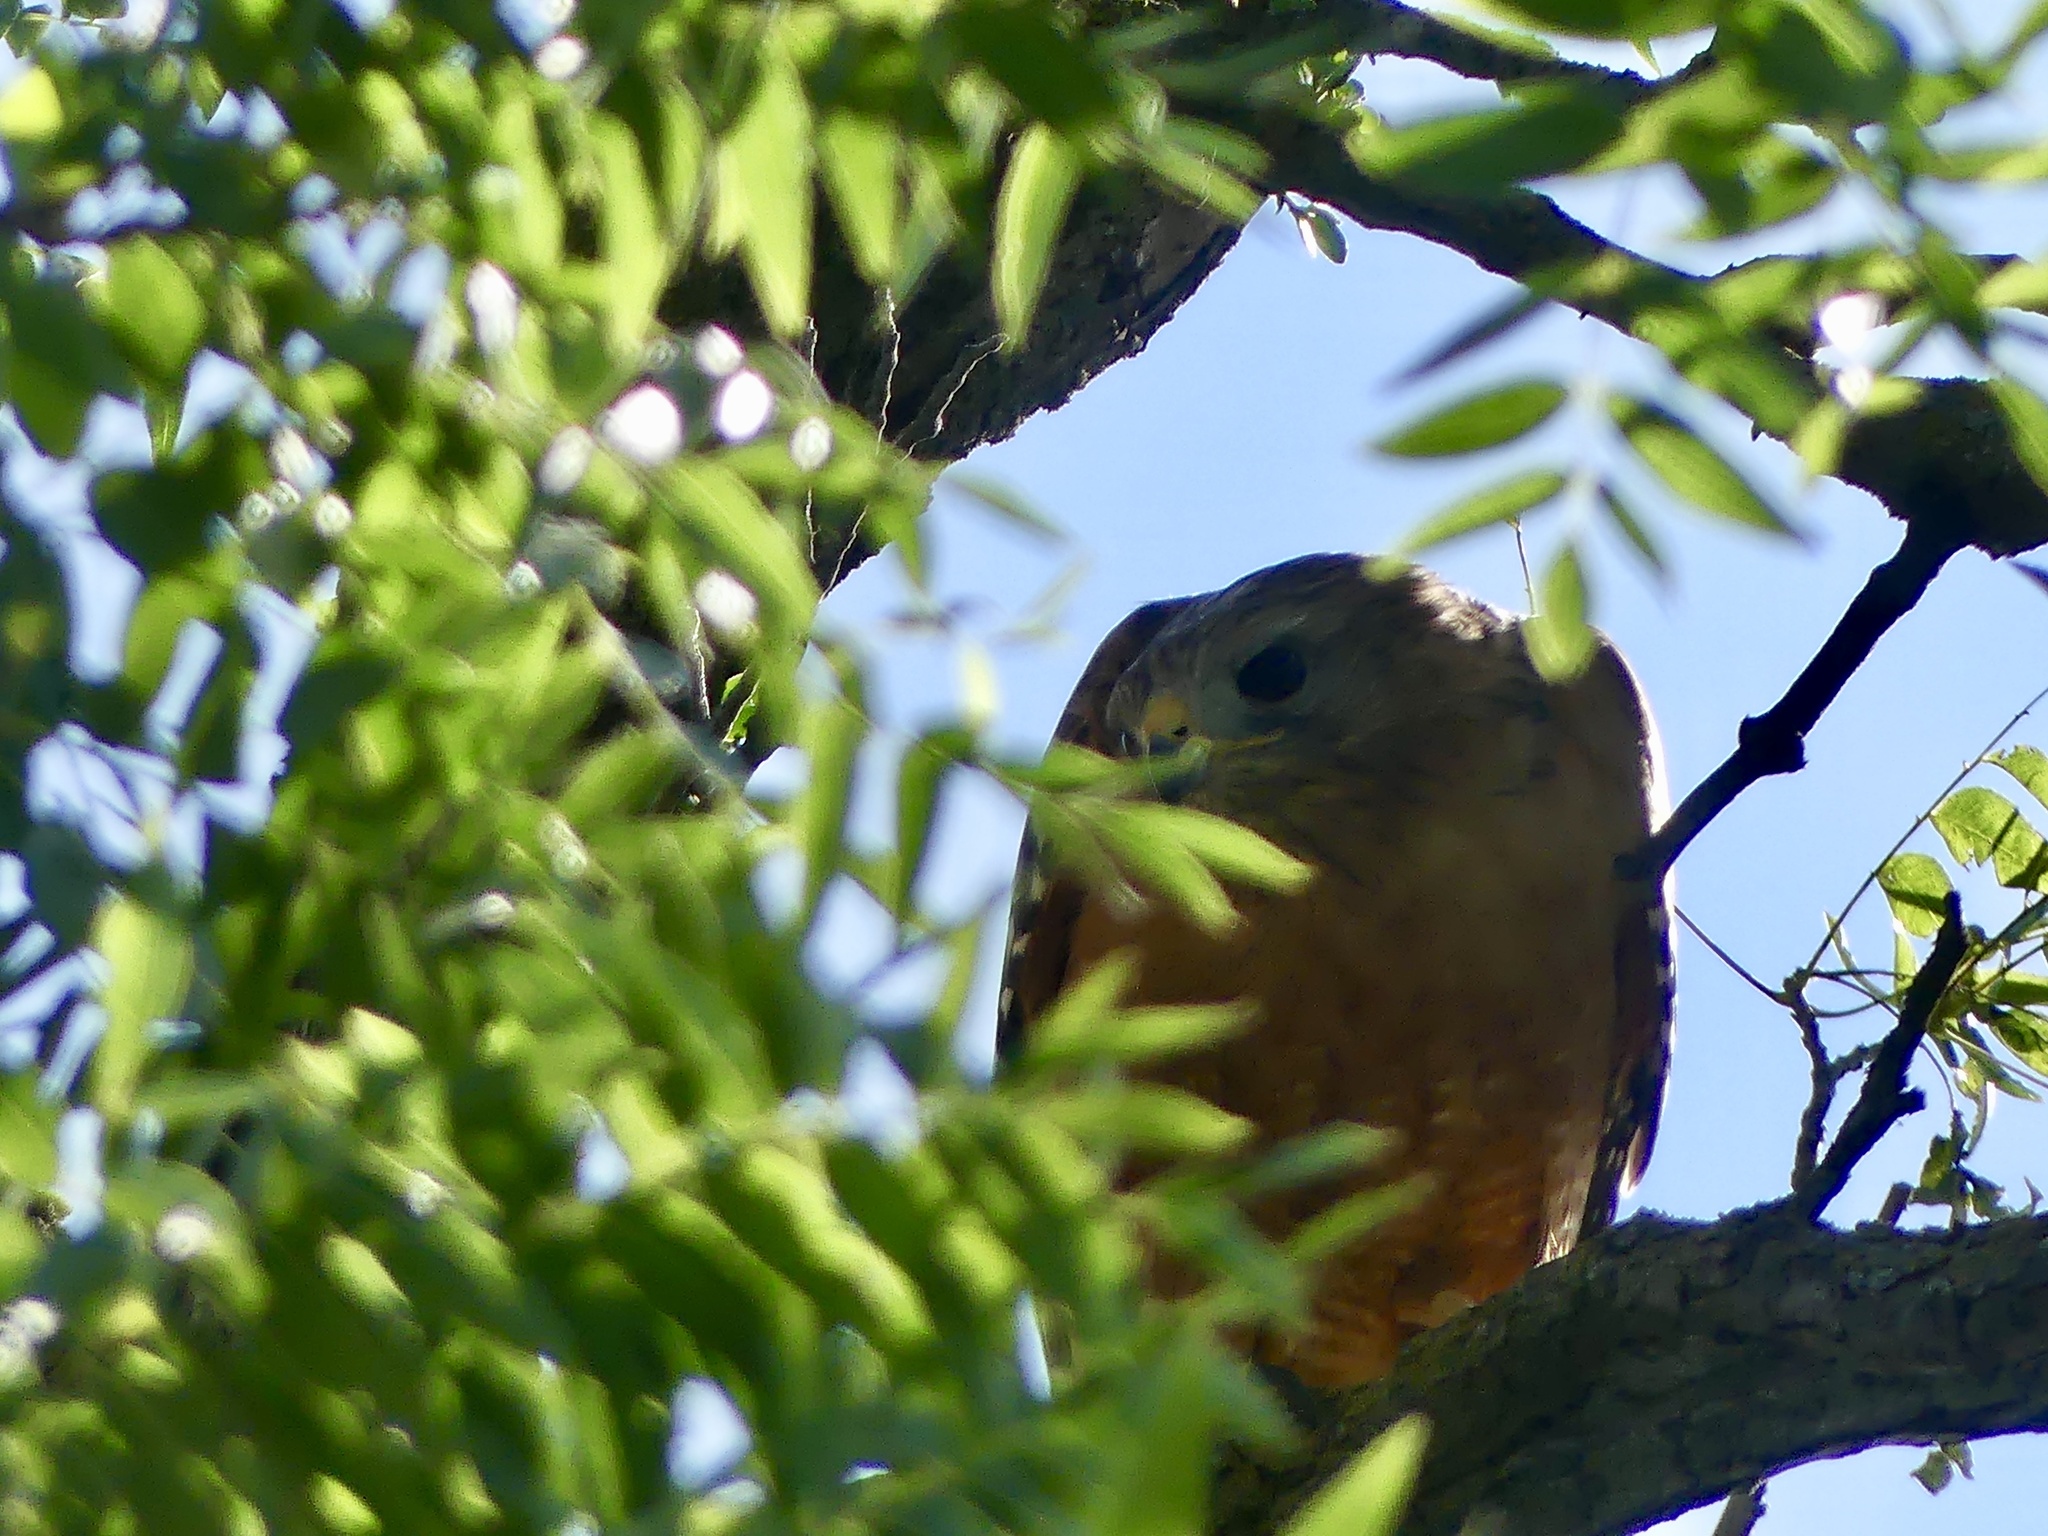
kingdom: Animalia
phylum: Chordata
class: Aves
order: Accipitriformes
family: Accipitridae
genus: Buteo
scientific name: Buteo lineatus
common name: Red-shouldered hawk
